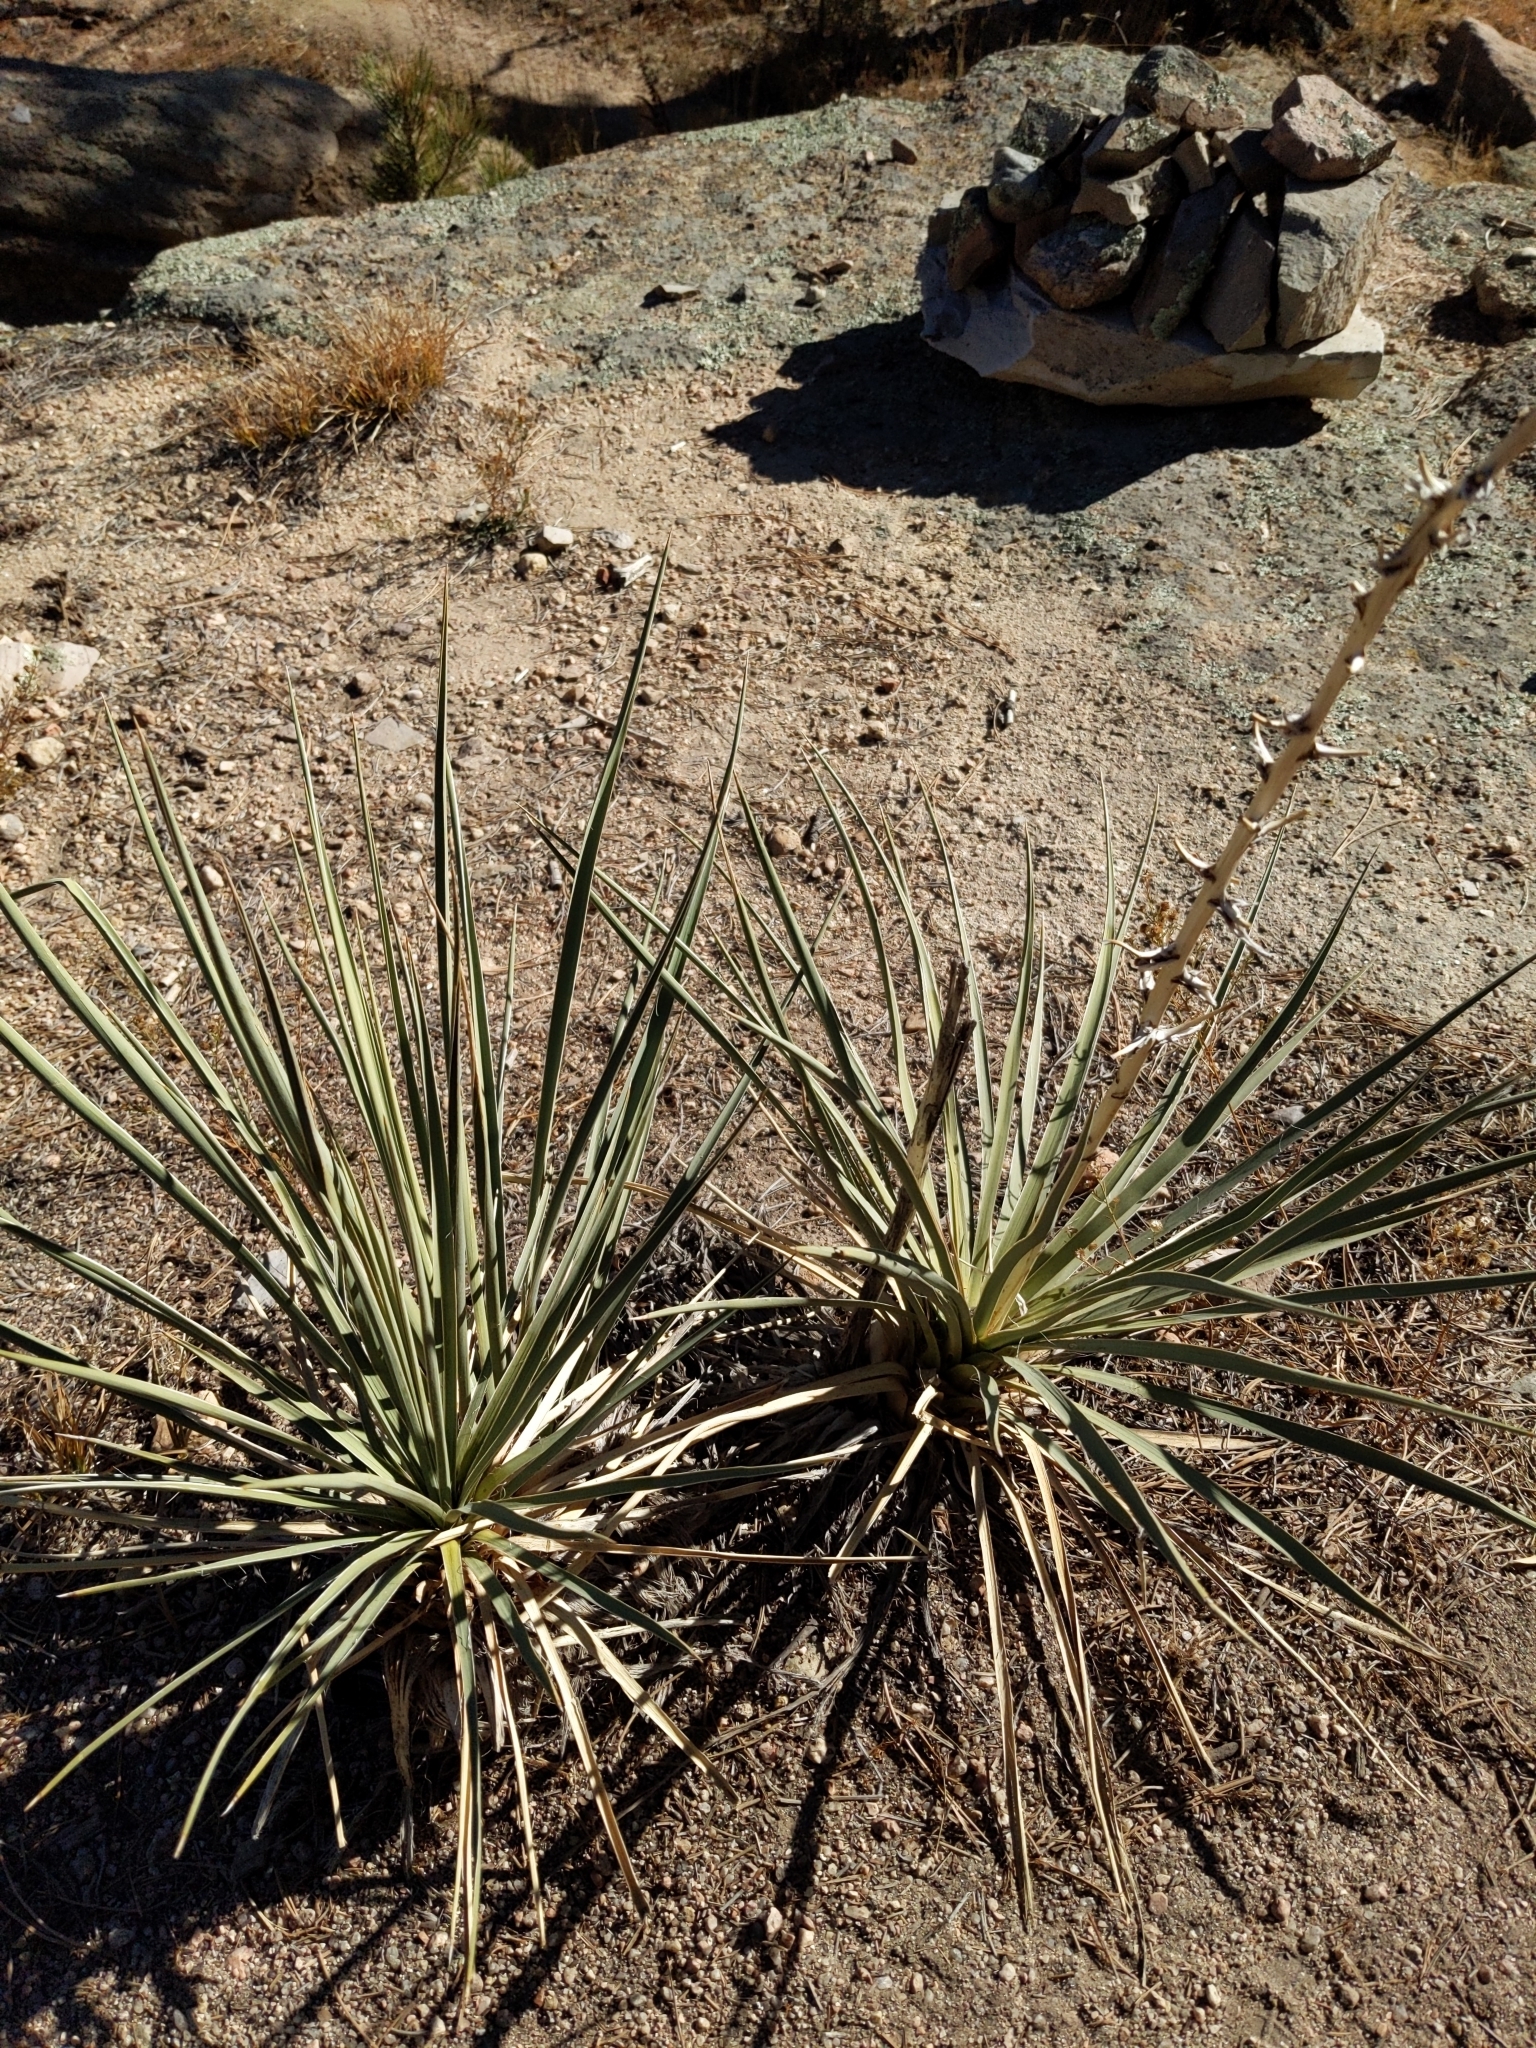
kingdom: Plantae
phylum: Tracheophyta
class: Liliopsida
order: Asparagales
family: Asparagaceae
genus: Yucca
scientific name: Yucca glauca
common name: Great plains yucca
